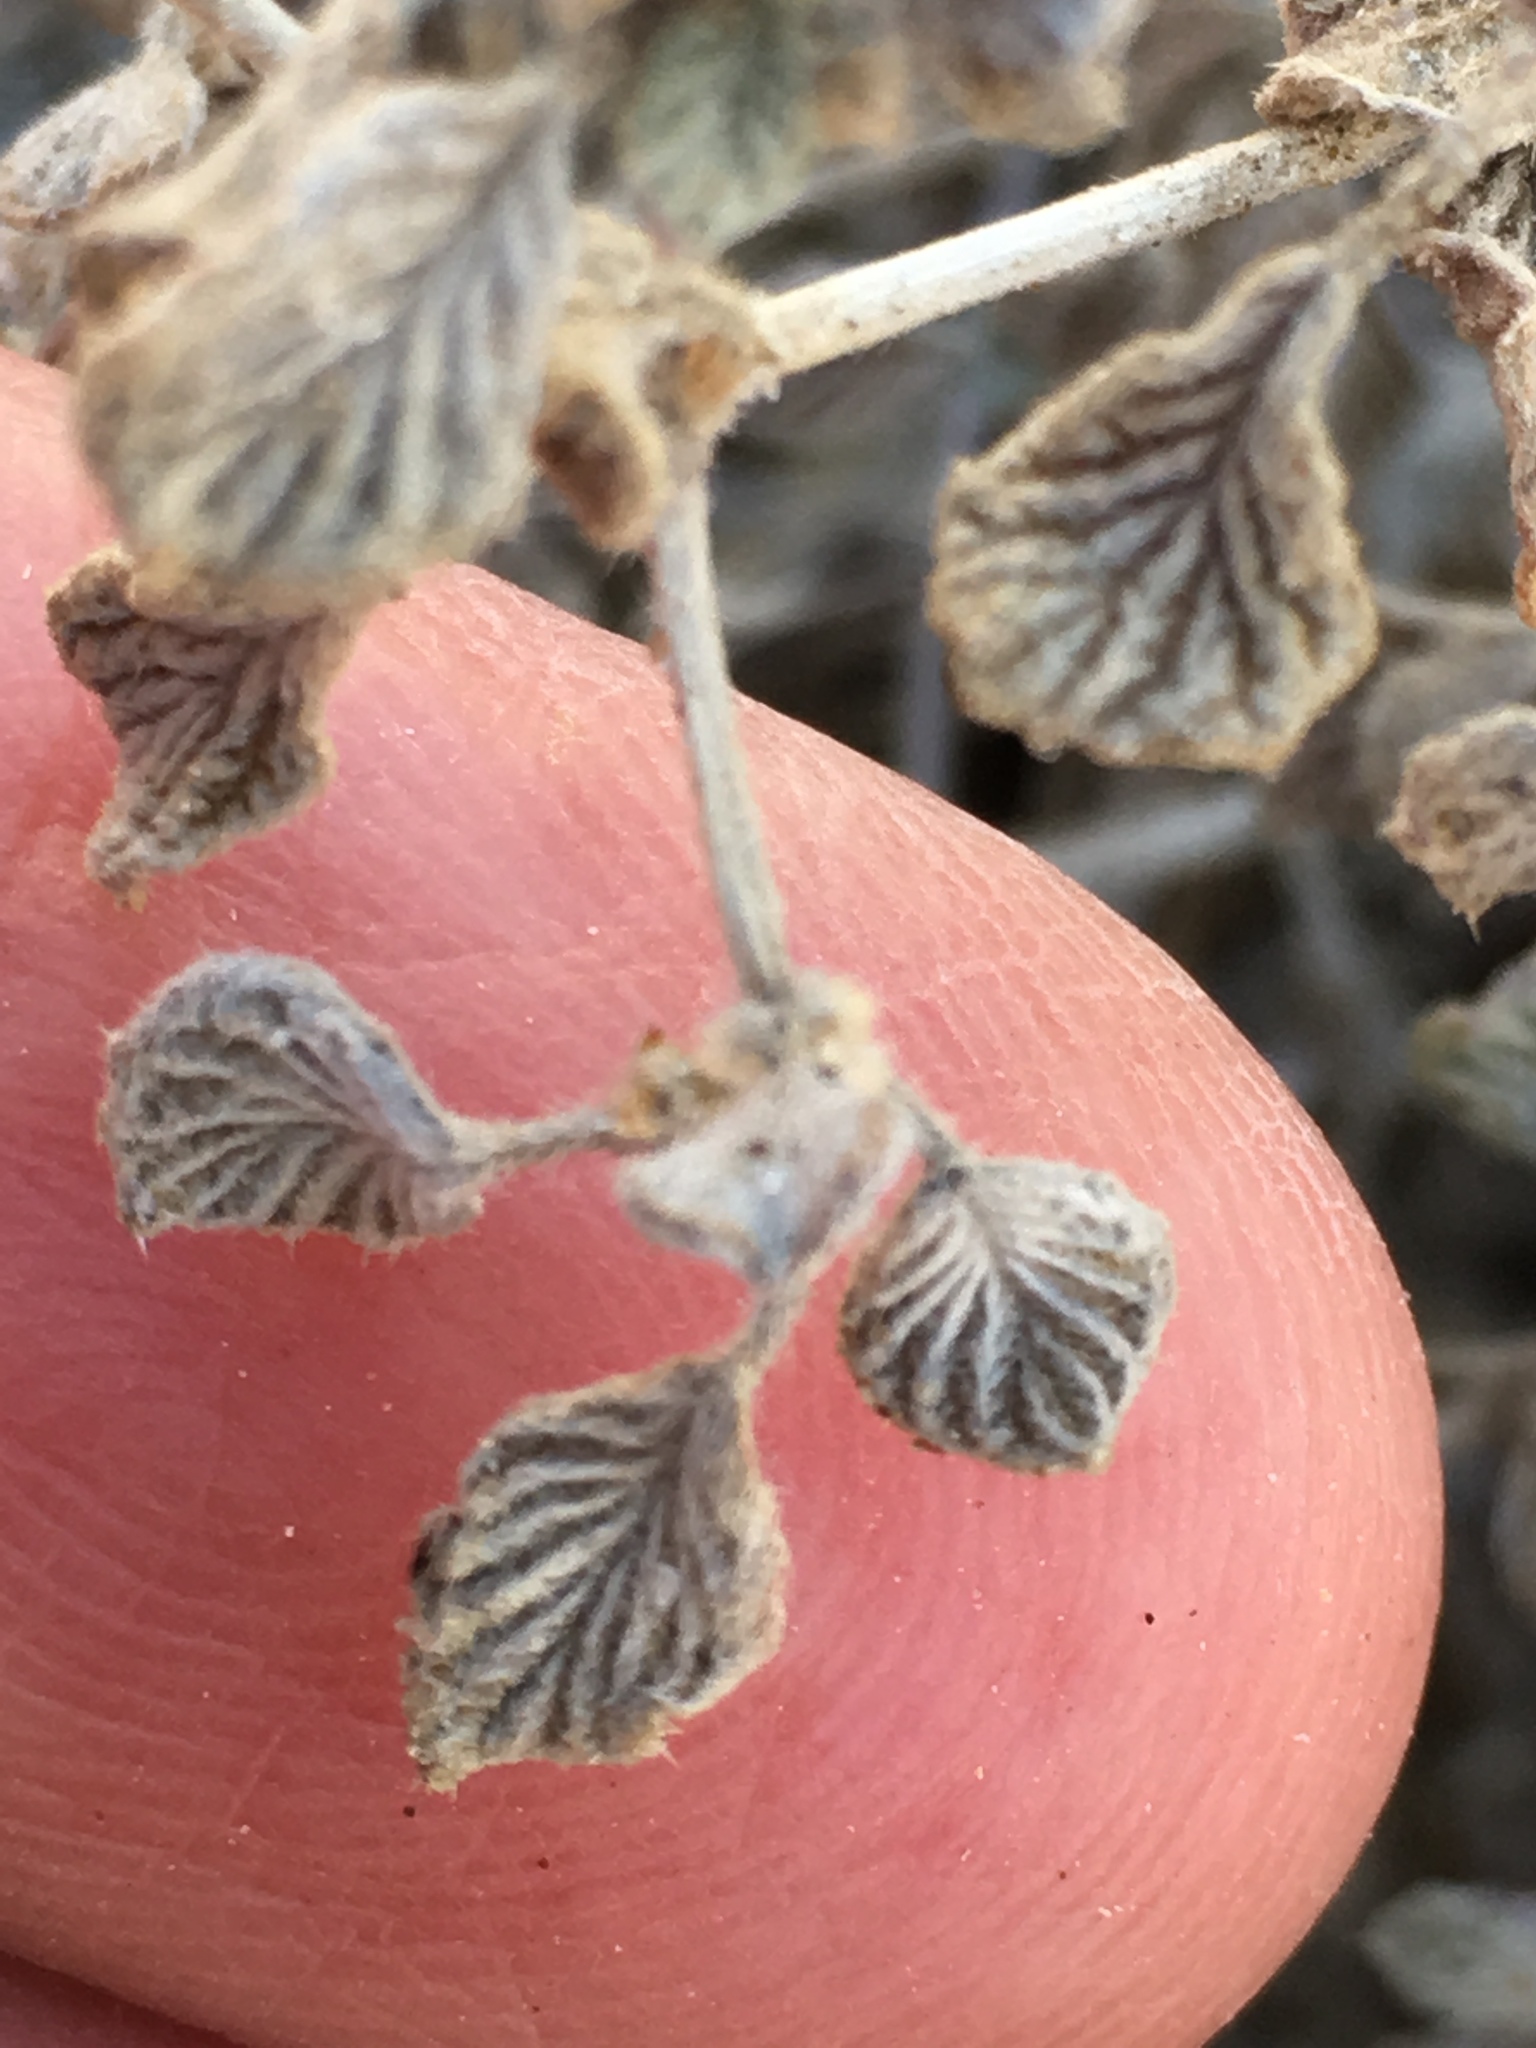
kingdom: Plantae
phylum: Tracheophyta
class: Magnoliopsida
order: Boraginales
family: Ehretiaceae
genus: Tiquilia
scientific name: Tiquilia plicata
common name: Fan-leaf tiquilia
